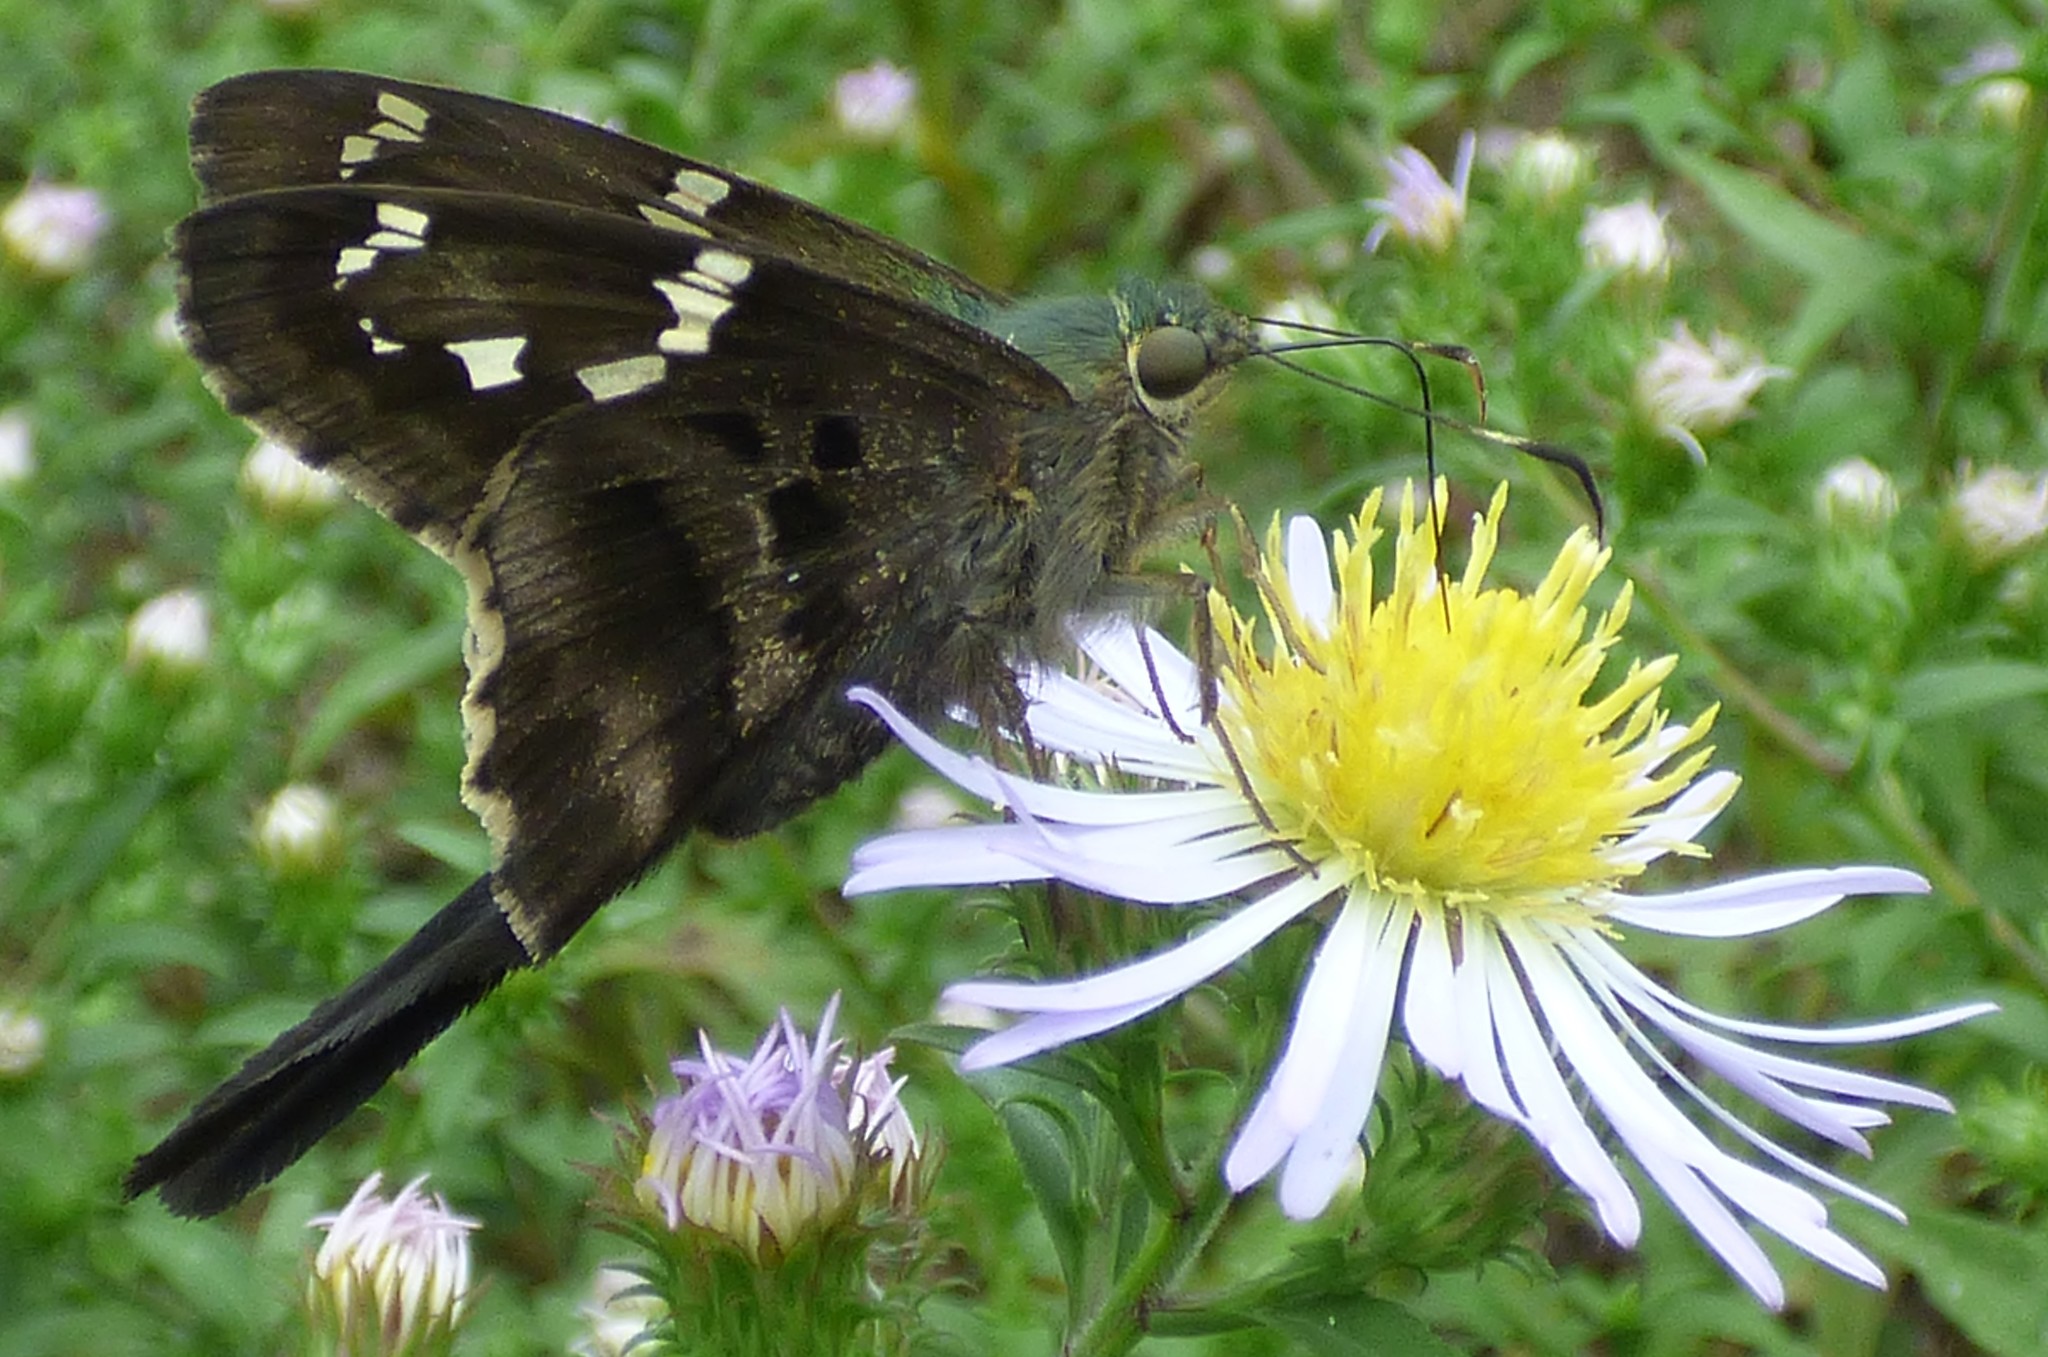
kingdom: Animalia
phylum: Arthropoda
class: Insecta
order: Lepidoptera
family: Hesperiidae
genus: Urbanus
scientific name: Urbanus proteus
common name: Long-tailed skipper
